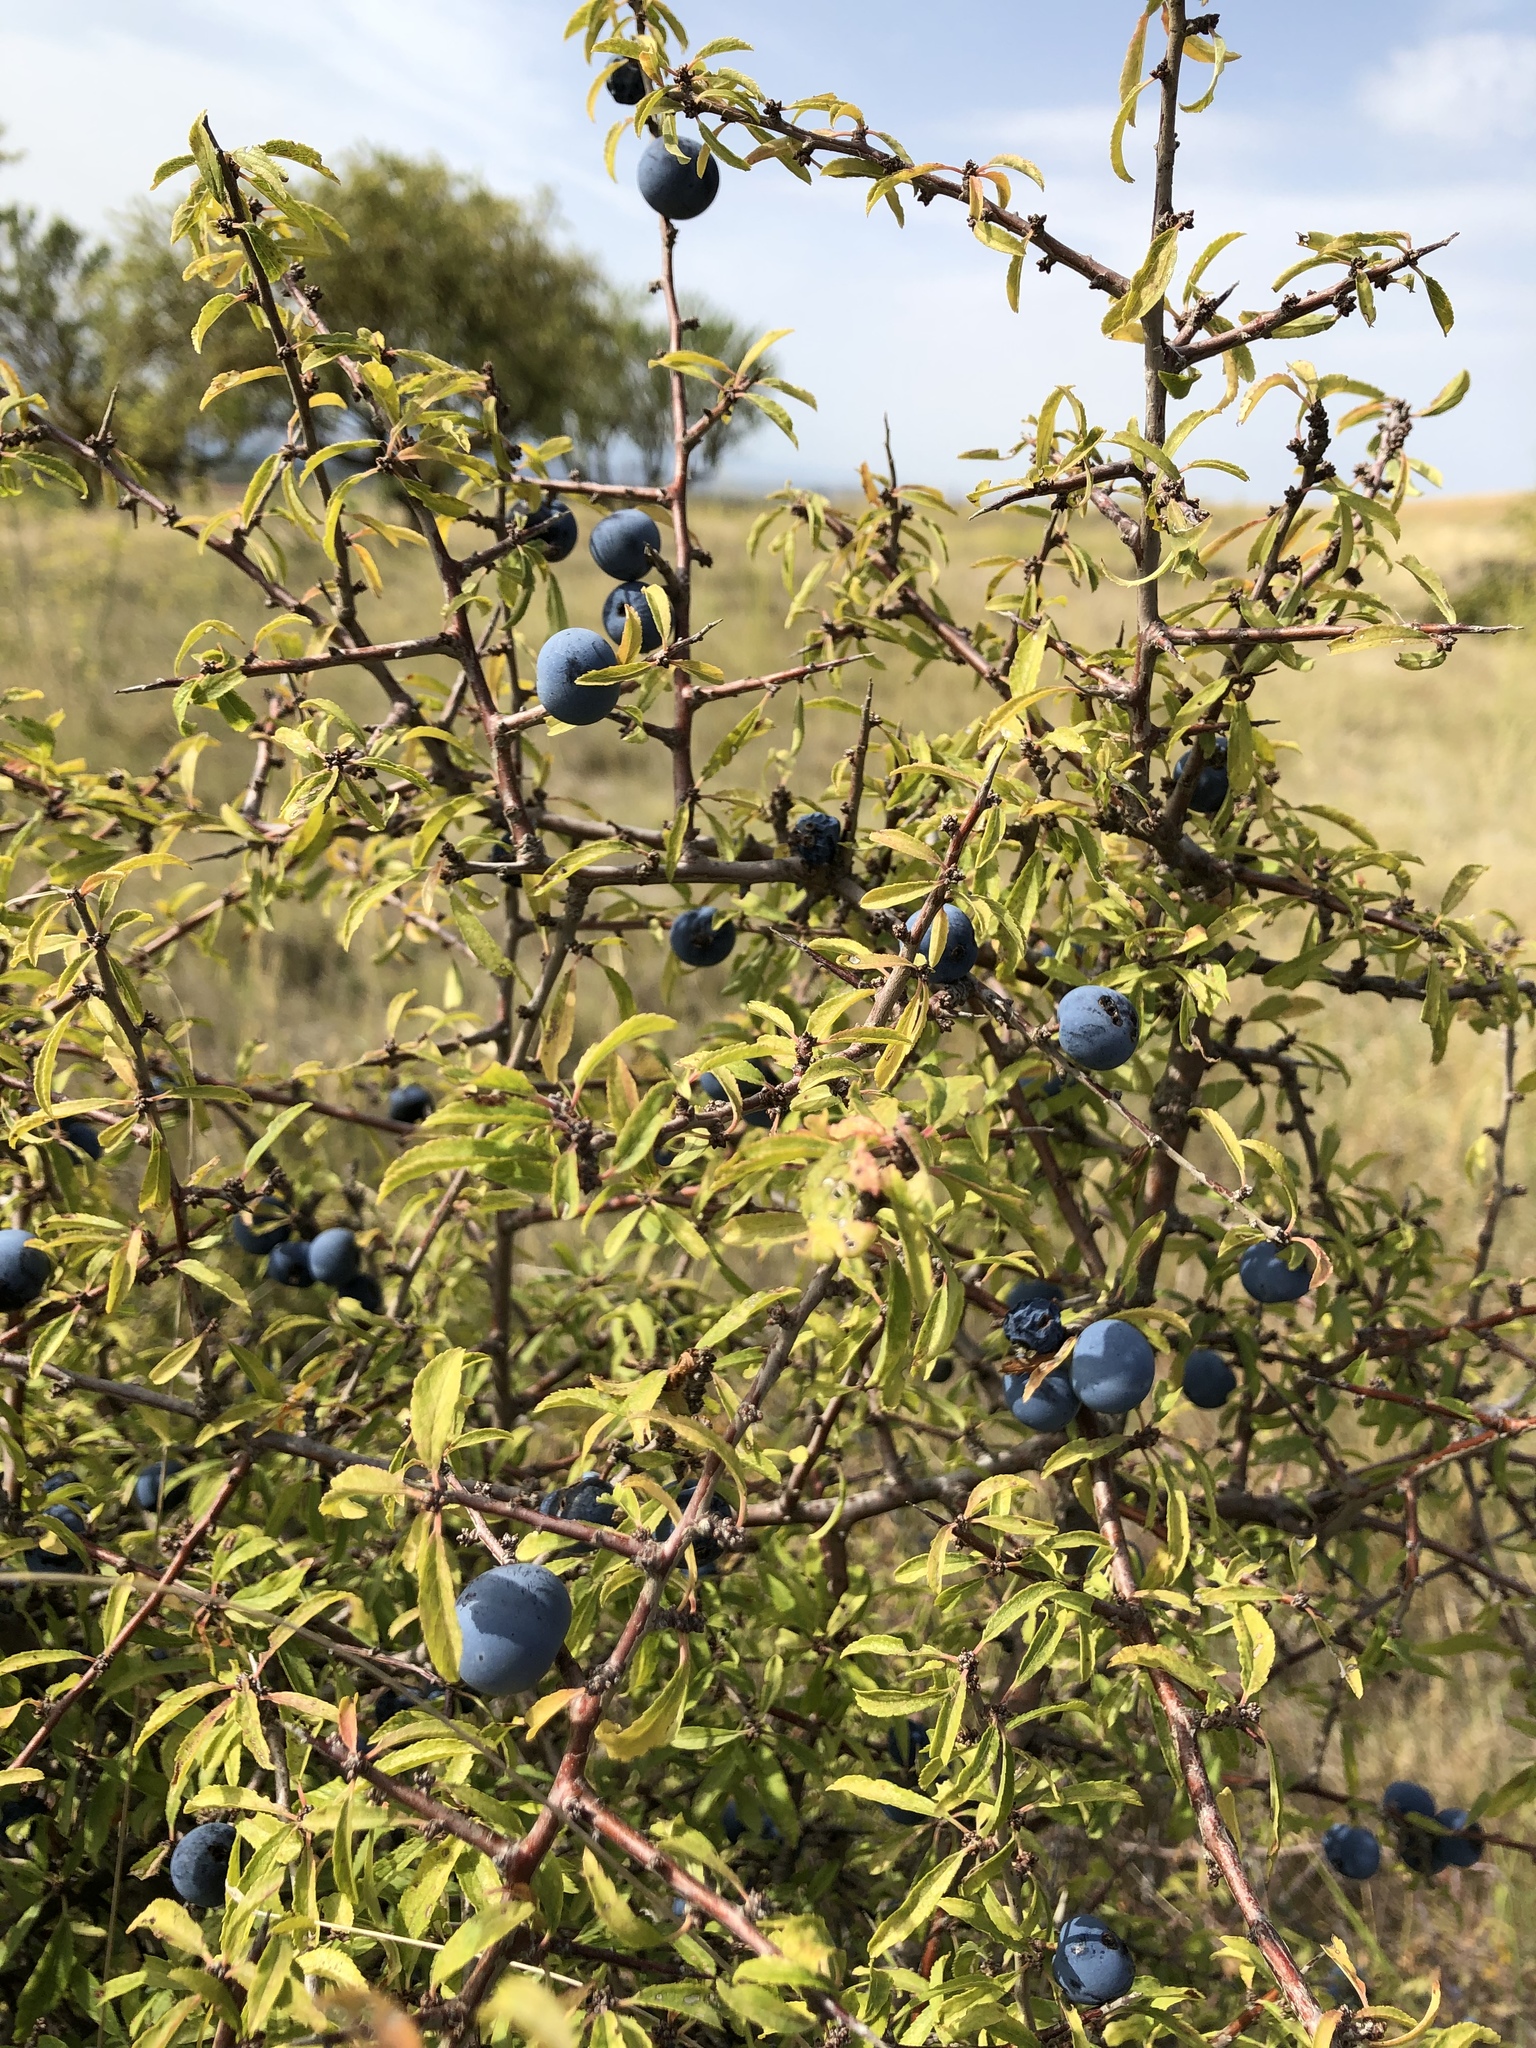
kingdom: Plantae
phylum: Tracheophyta
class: Magnoliopsida
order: Rosales
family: Rosaceae
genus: Prunus
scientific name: Prunus spinosa
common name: Blackthorn
